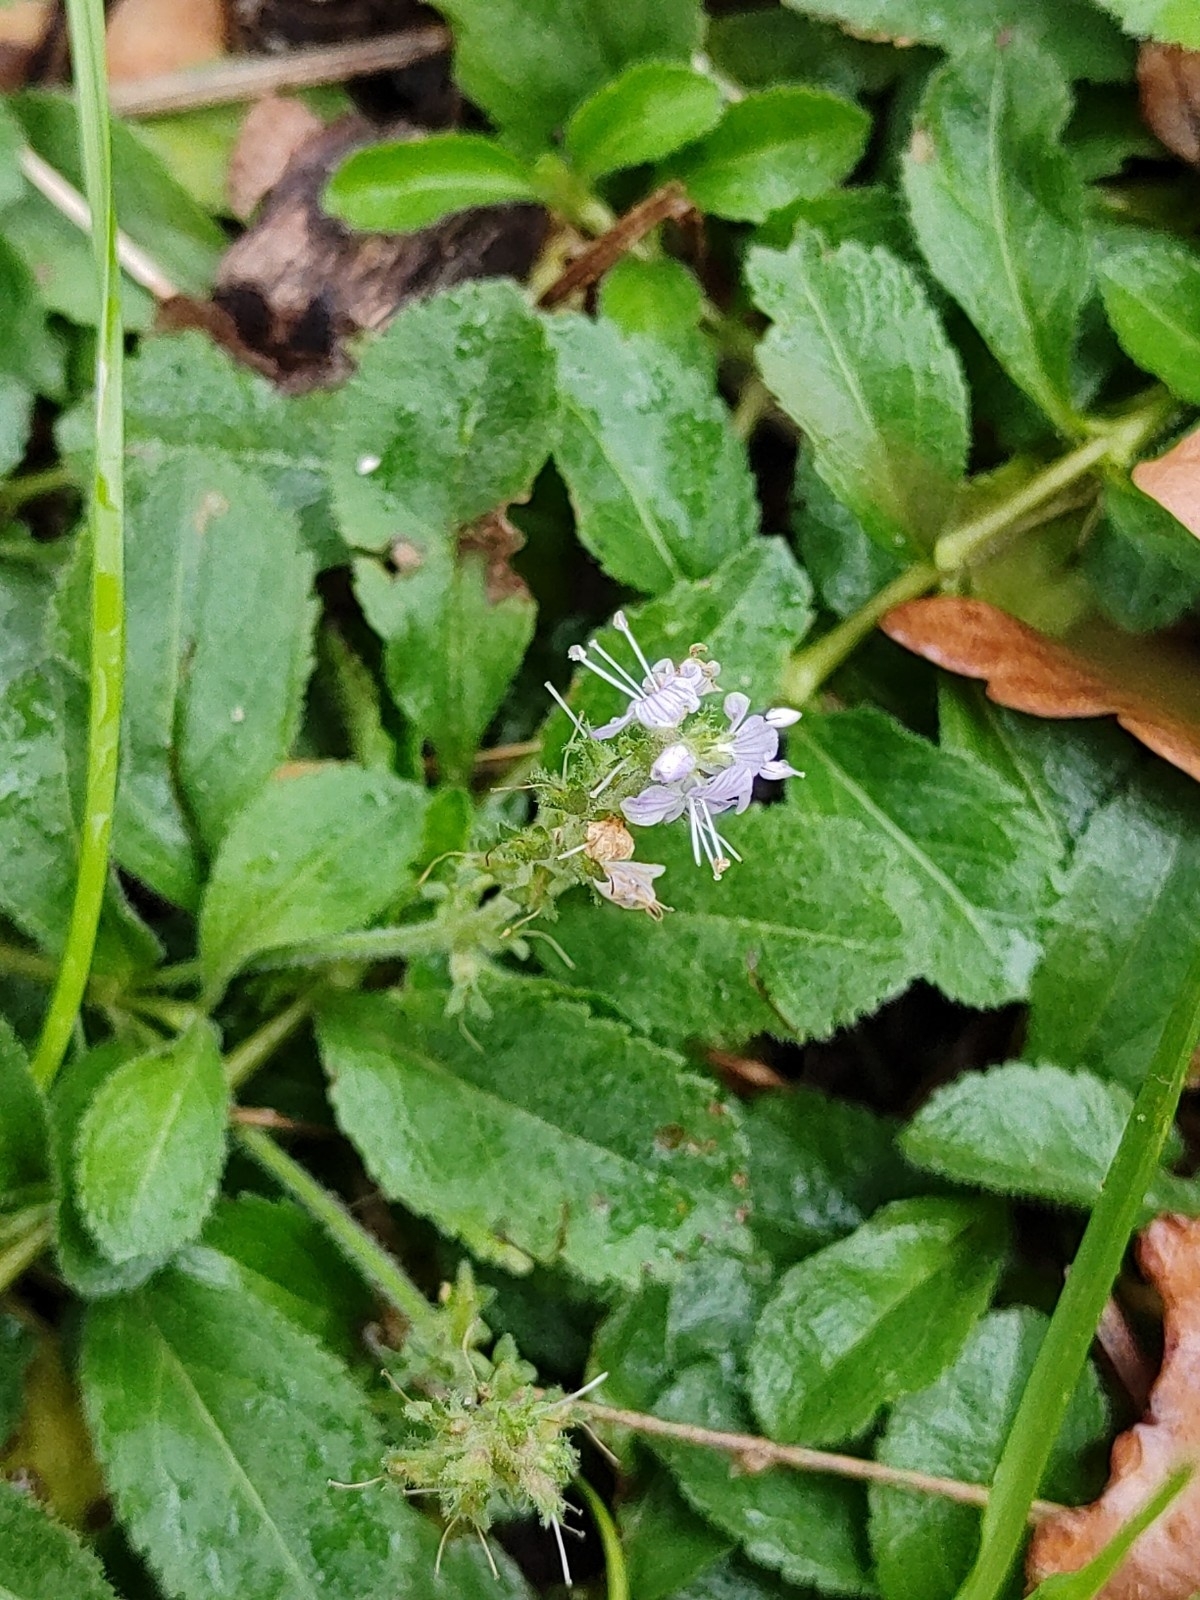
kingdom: Plantae
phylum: Tracheophyta
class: Magnoliopsida
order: Lamiales
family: Plantaginaceae
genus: Veronica
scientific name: Veronica officinalis
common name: Common speedwell
